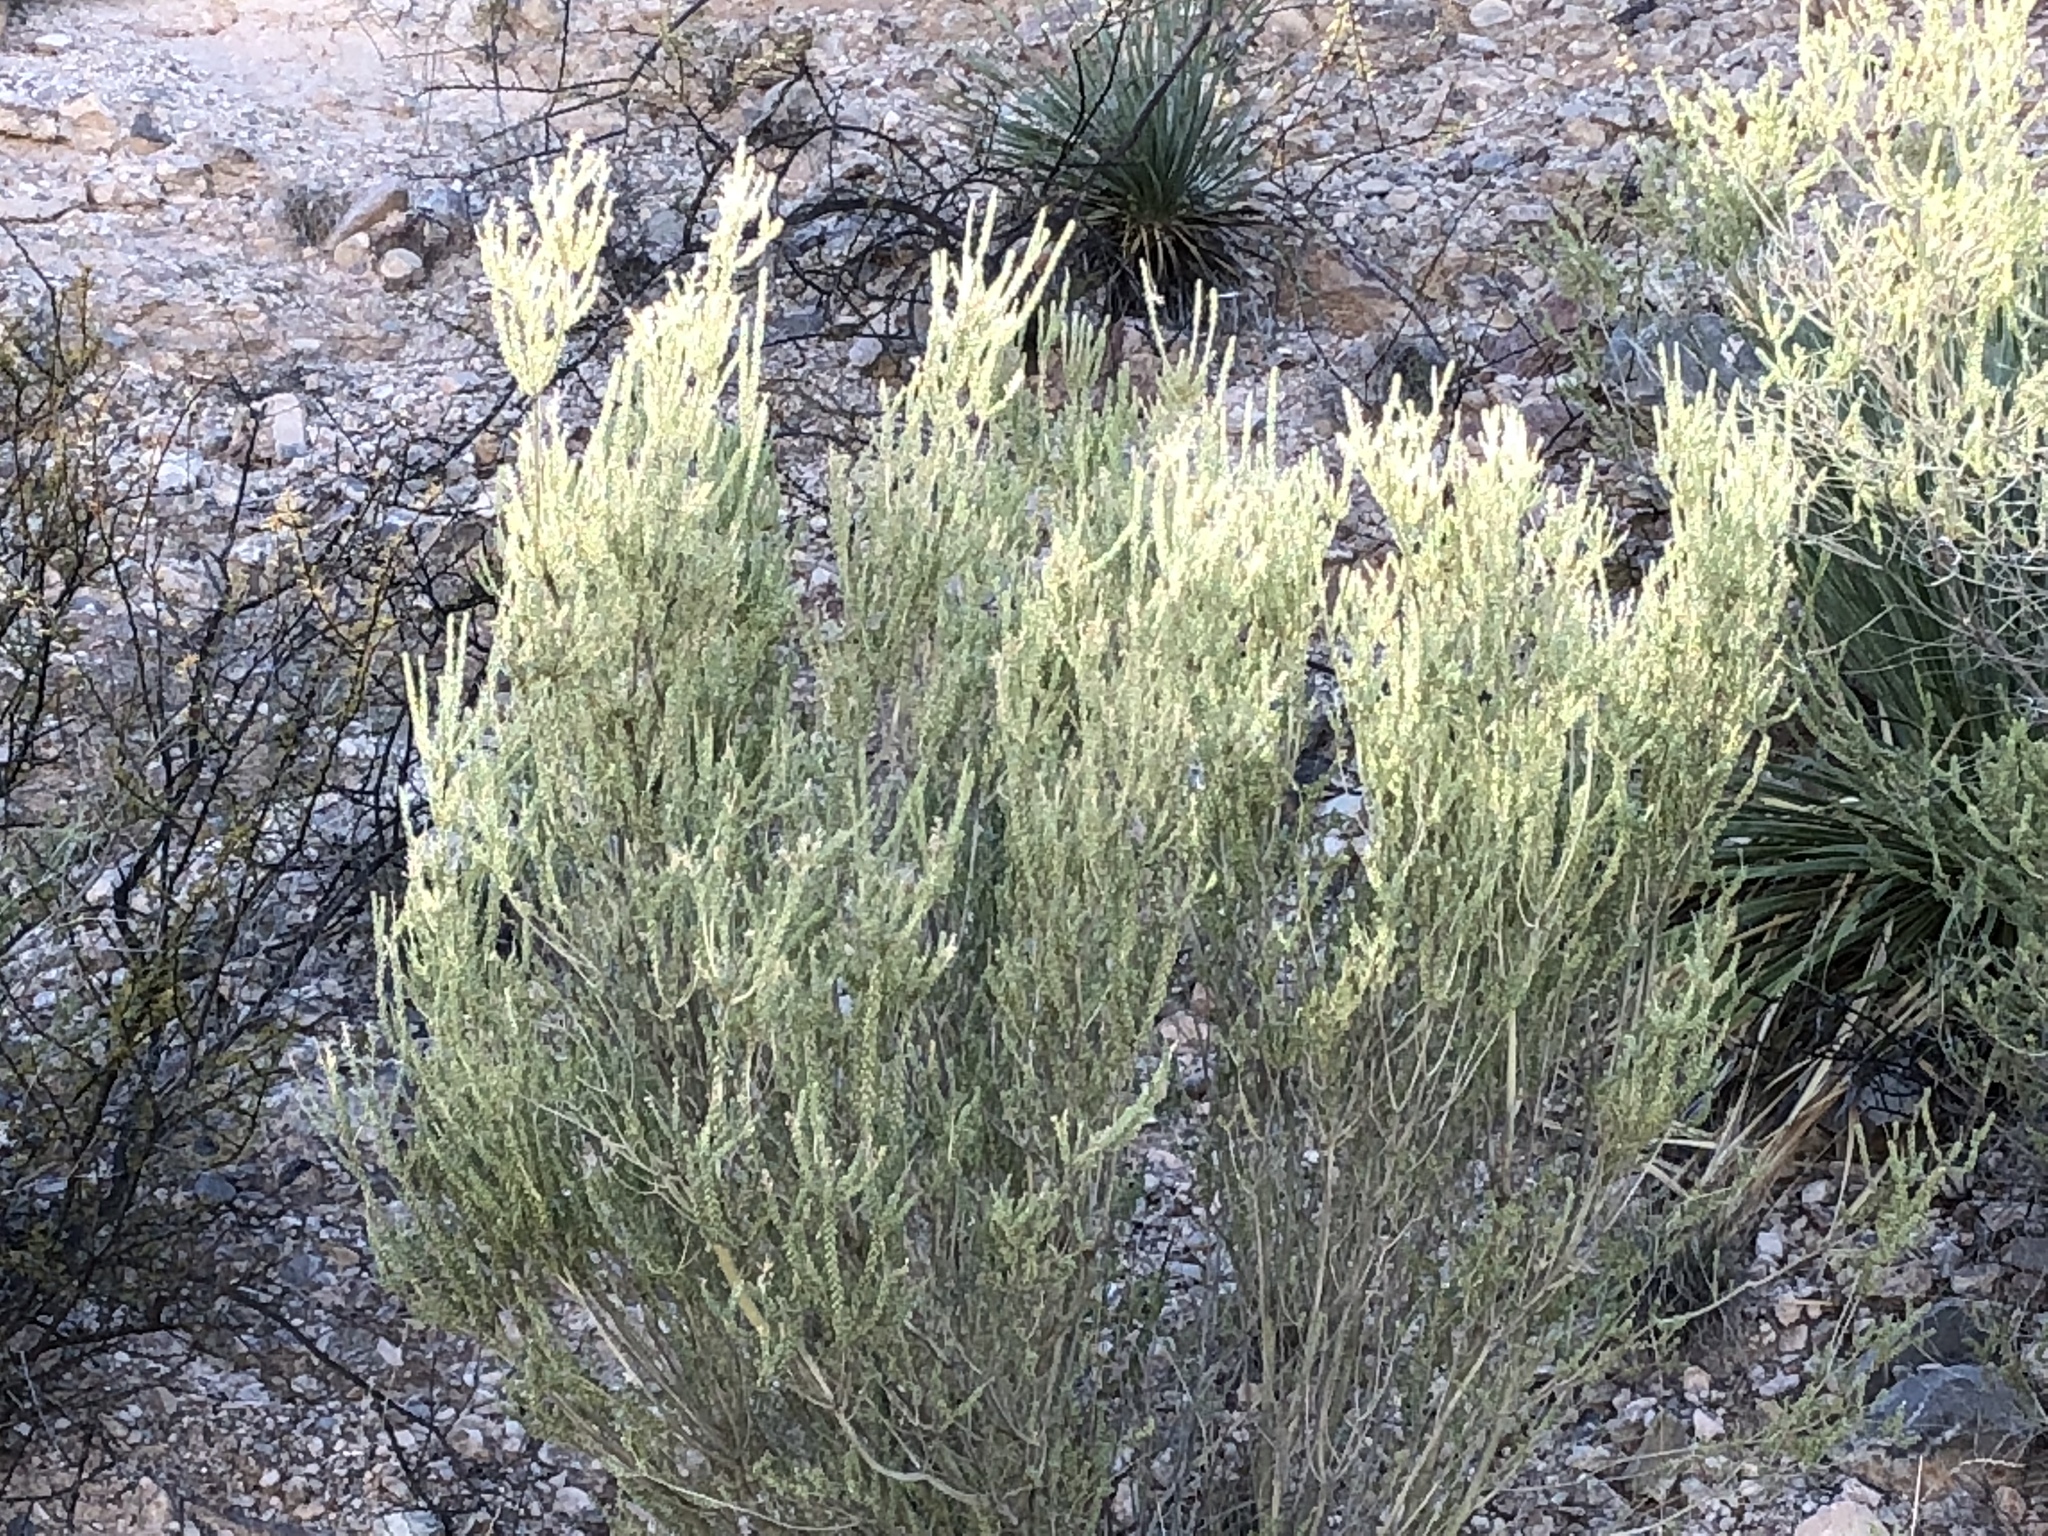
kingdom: Plantae
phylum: Tracheophyta
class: Magnoliopsida
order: Asterales
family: Asteraceae
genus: Baccharis
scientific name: Baccharis sarothroides
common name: Desert-broom
